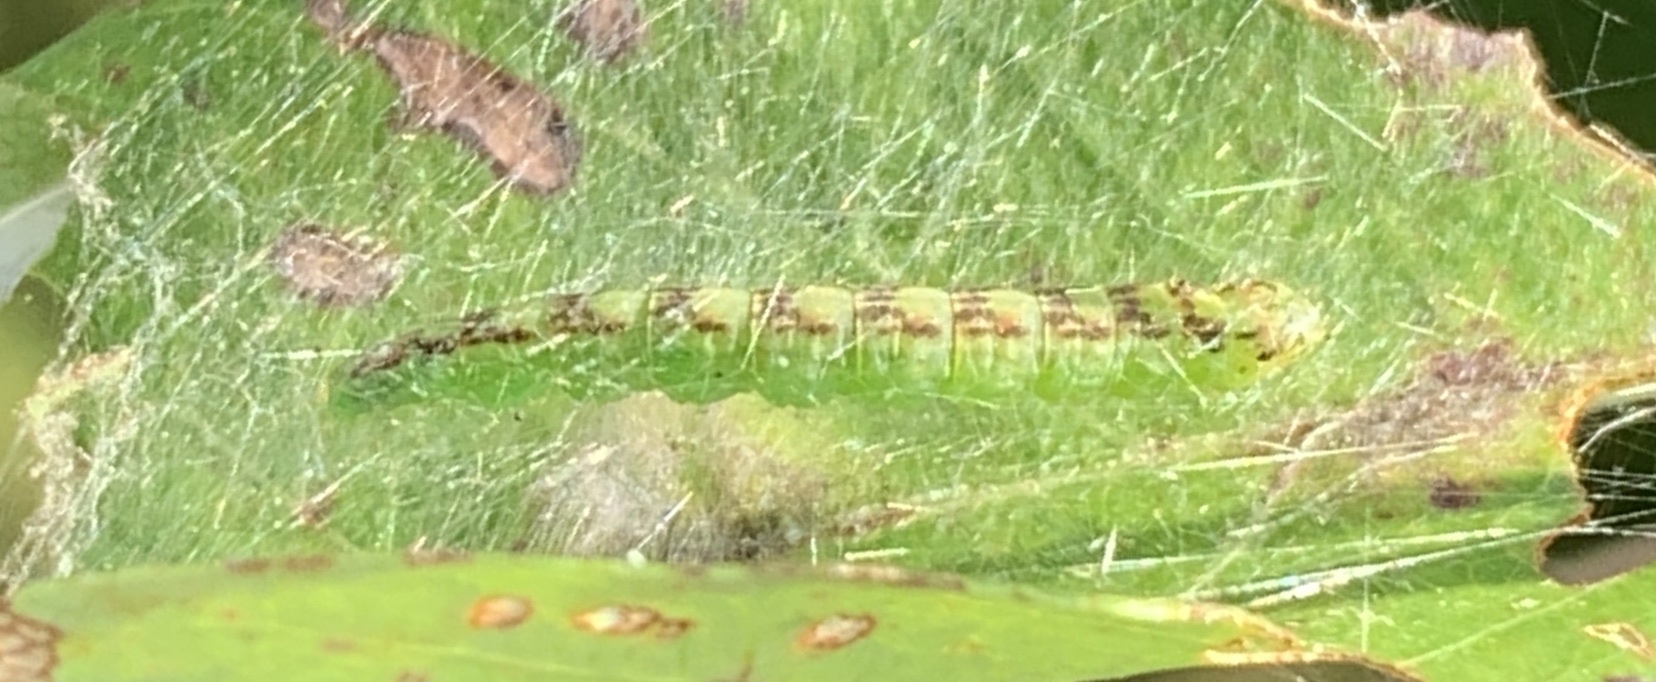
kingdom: Animalia
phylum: Arthropoda
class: Insecta
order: Lepidoptera
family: Pyralidae
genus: Oreana
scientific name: Oreana unicolorella
